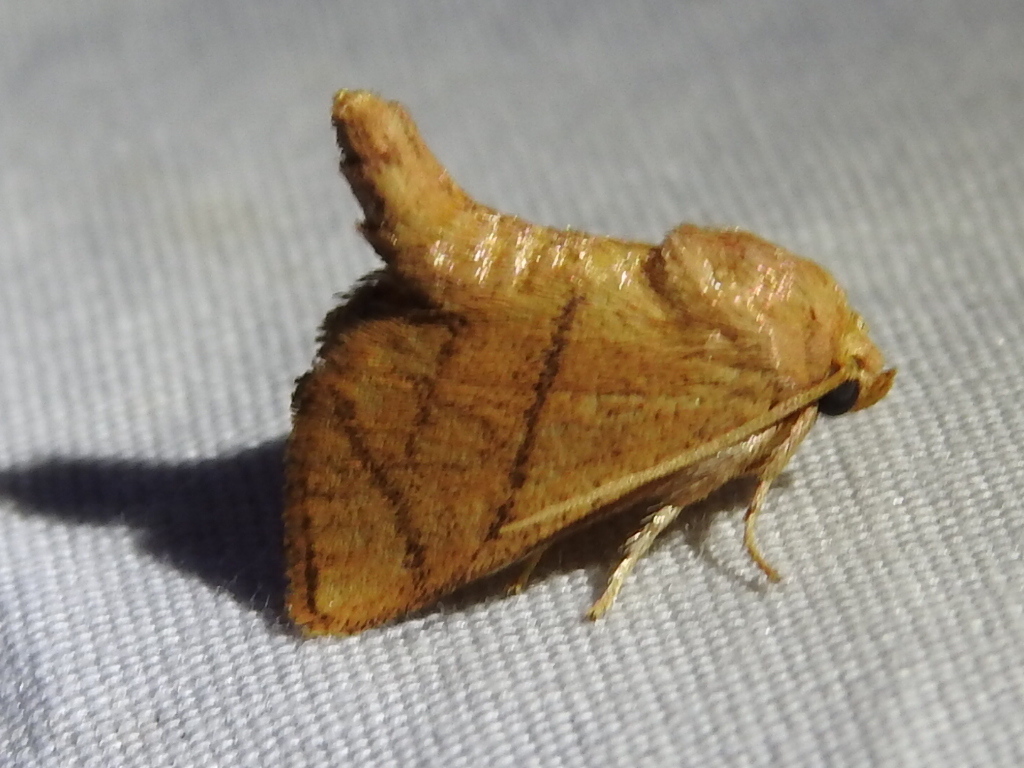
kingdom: Animalia
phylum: Arthropoda
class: Insecta
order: Lepidoptera
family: Limacodidae
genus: Apoda
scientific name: Apoda y-inversa
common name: Yellow-collared slug moth
